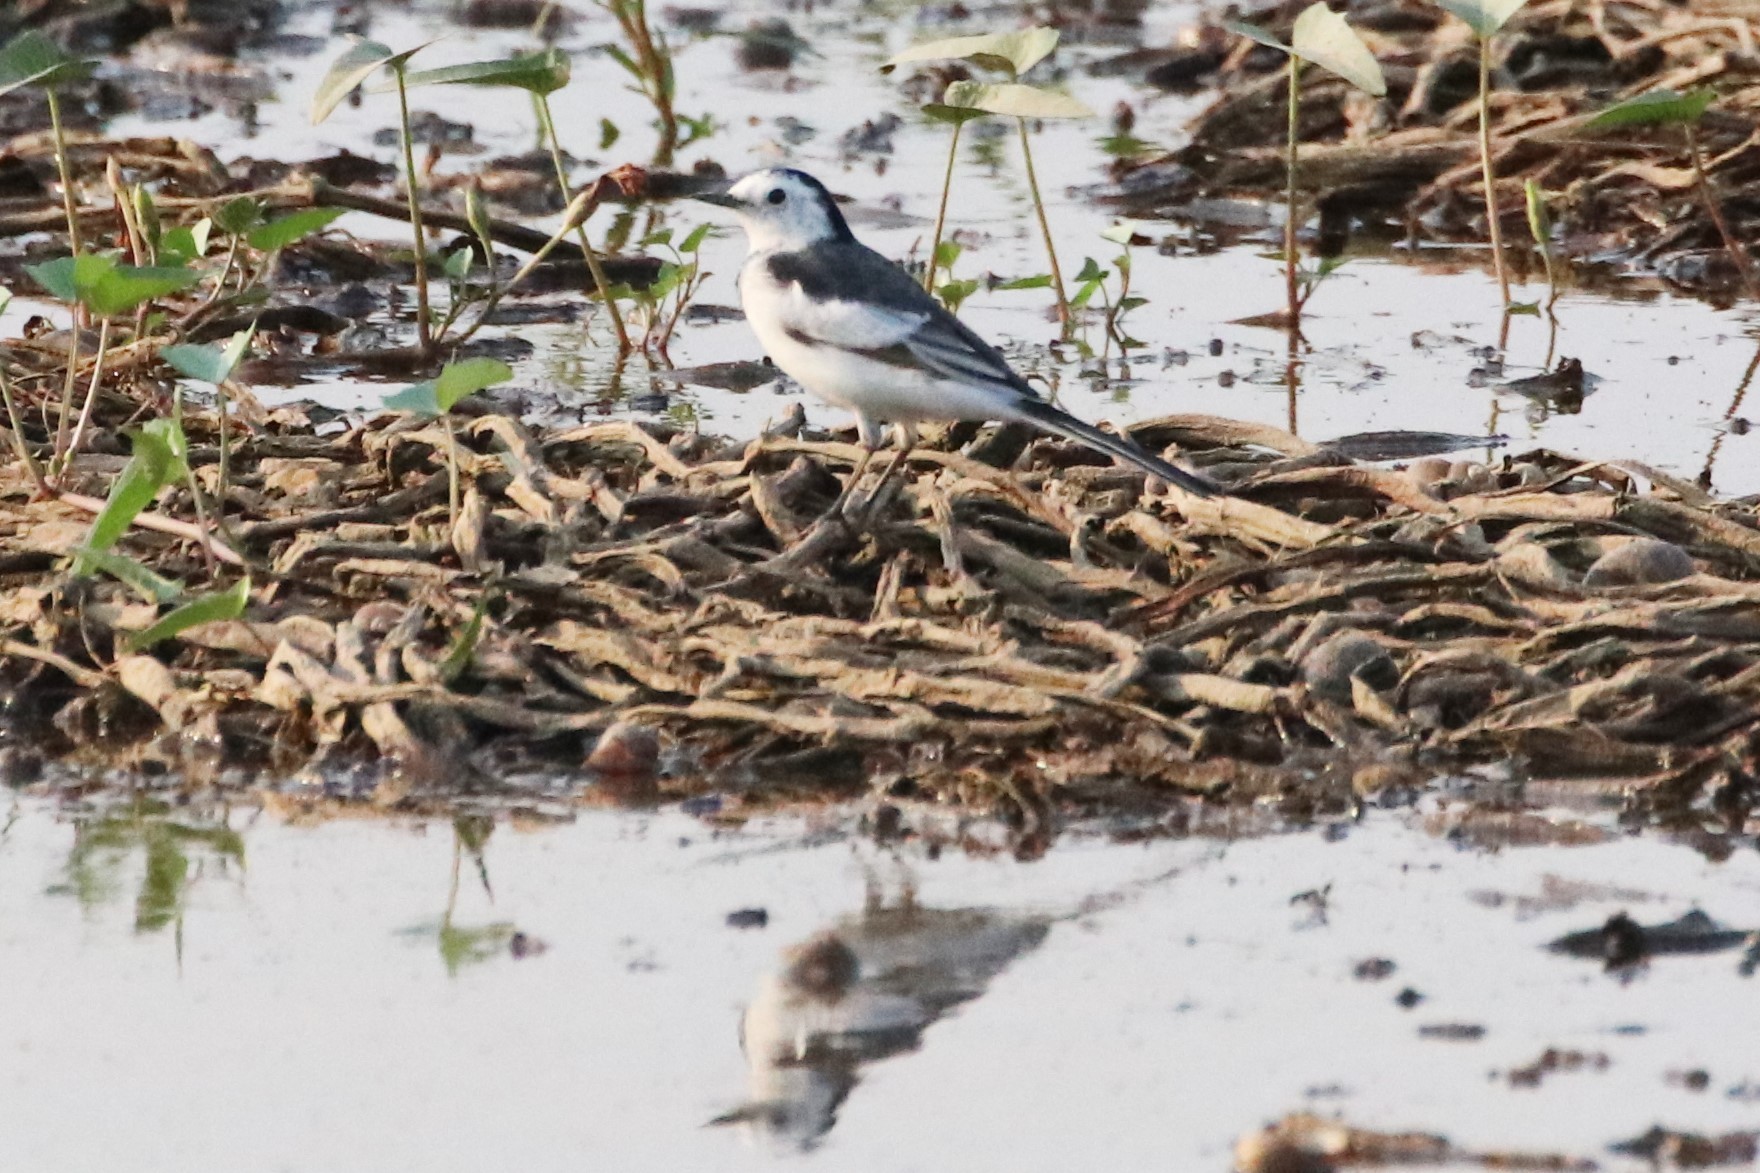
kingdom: Animalia
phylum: Chordata
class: Aves
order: Passeriformes
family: Motacillidae
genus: Motacilla
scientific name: Motacilla alba
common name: White wagtail
